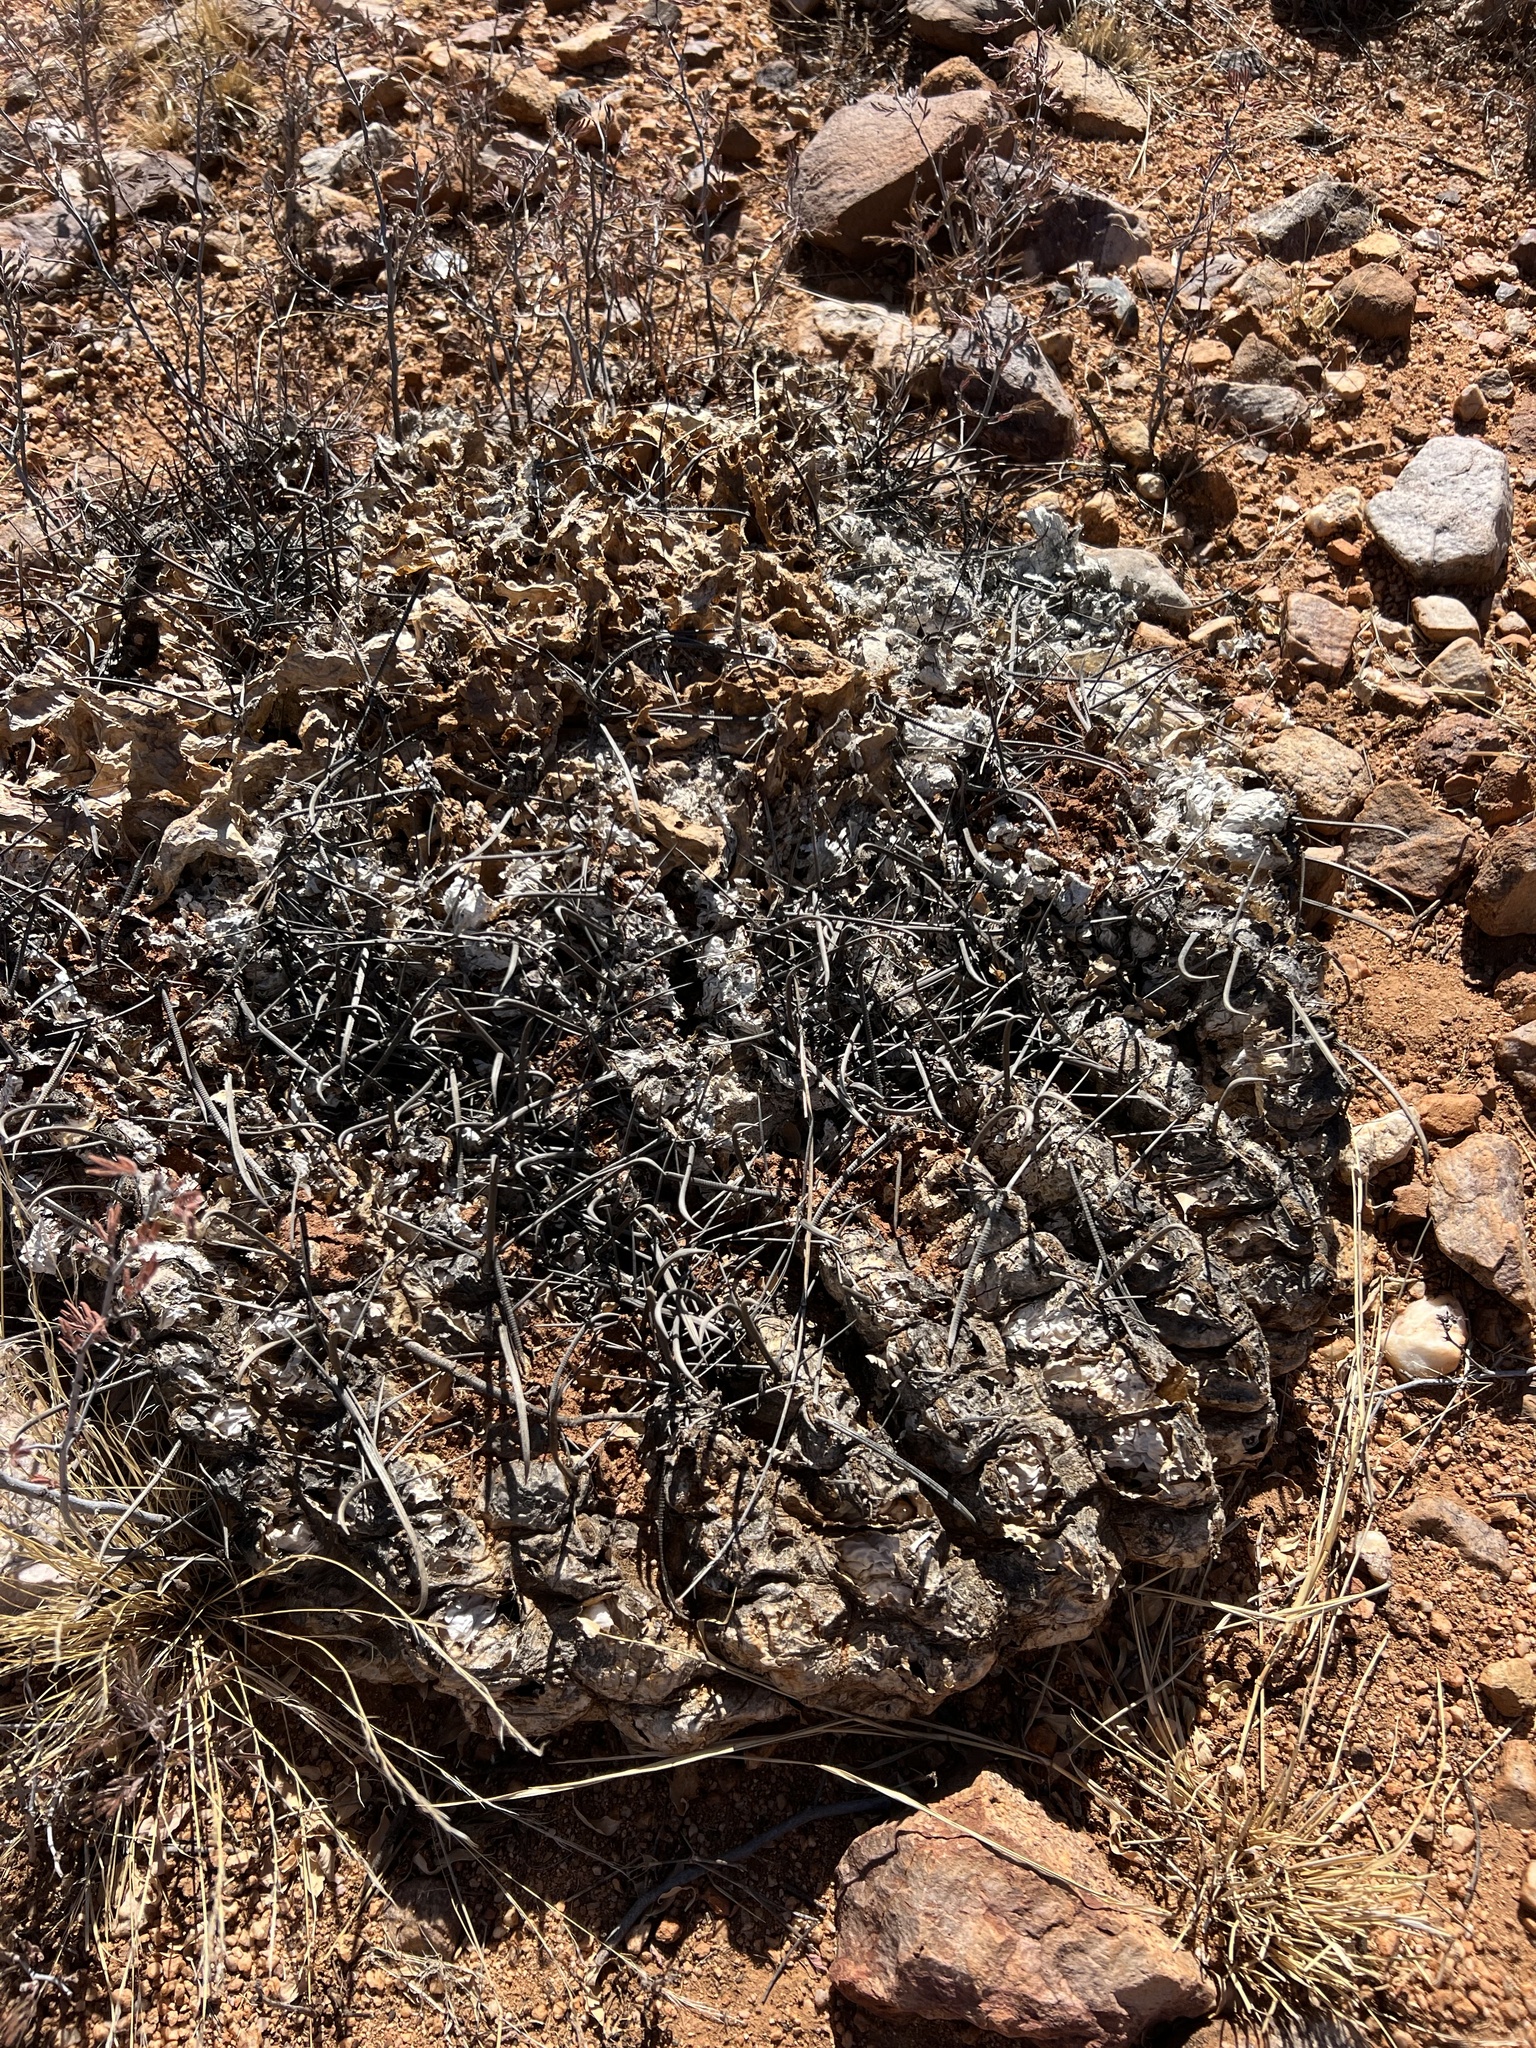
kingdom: Plantae
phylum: Tracheophyta
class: Magnoliopsida
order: Caryophyllales
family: Cactaceae
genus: Ferocactus
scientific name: Ferocactus wislizeni
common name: Candy barrel cactus
